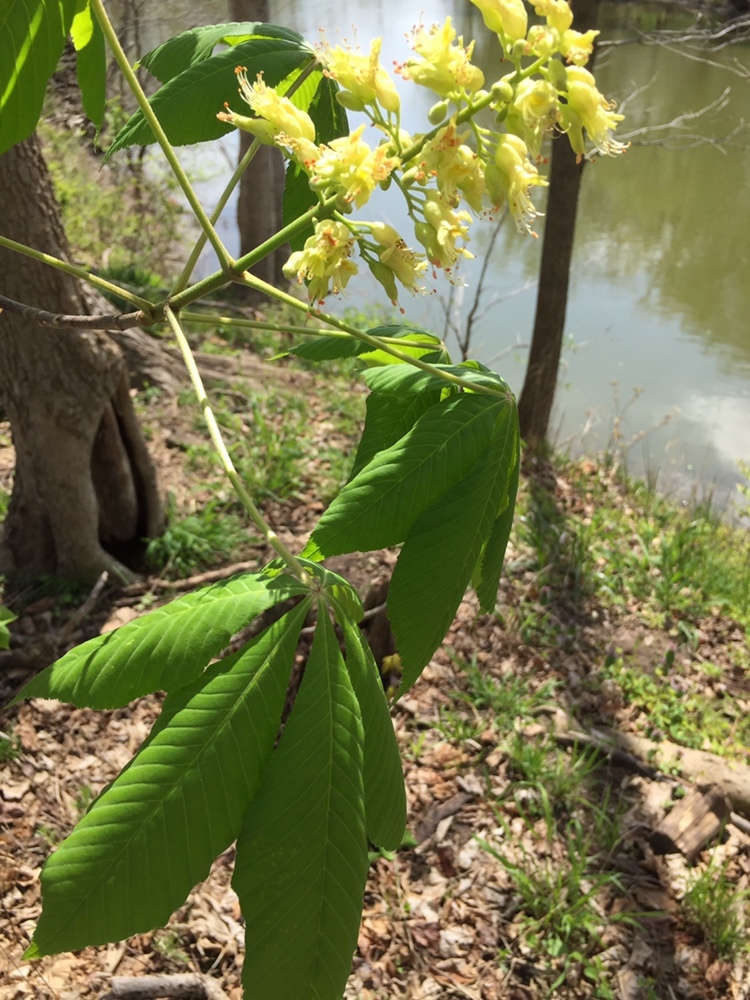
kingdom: Plantae
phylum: Tracheophyta
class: Magnoliopsida
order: Sapindales
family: Sapindaceae
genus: Aesculus
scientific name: Aesculus glabra
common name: Ohio buckeye
